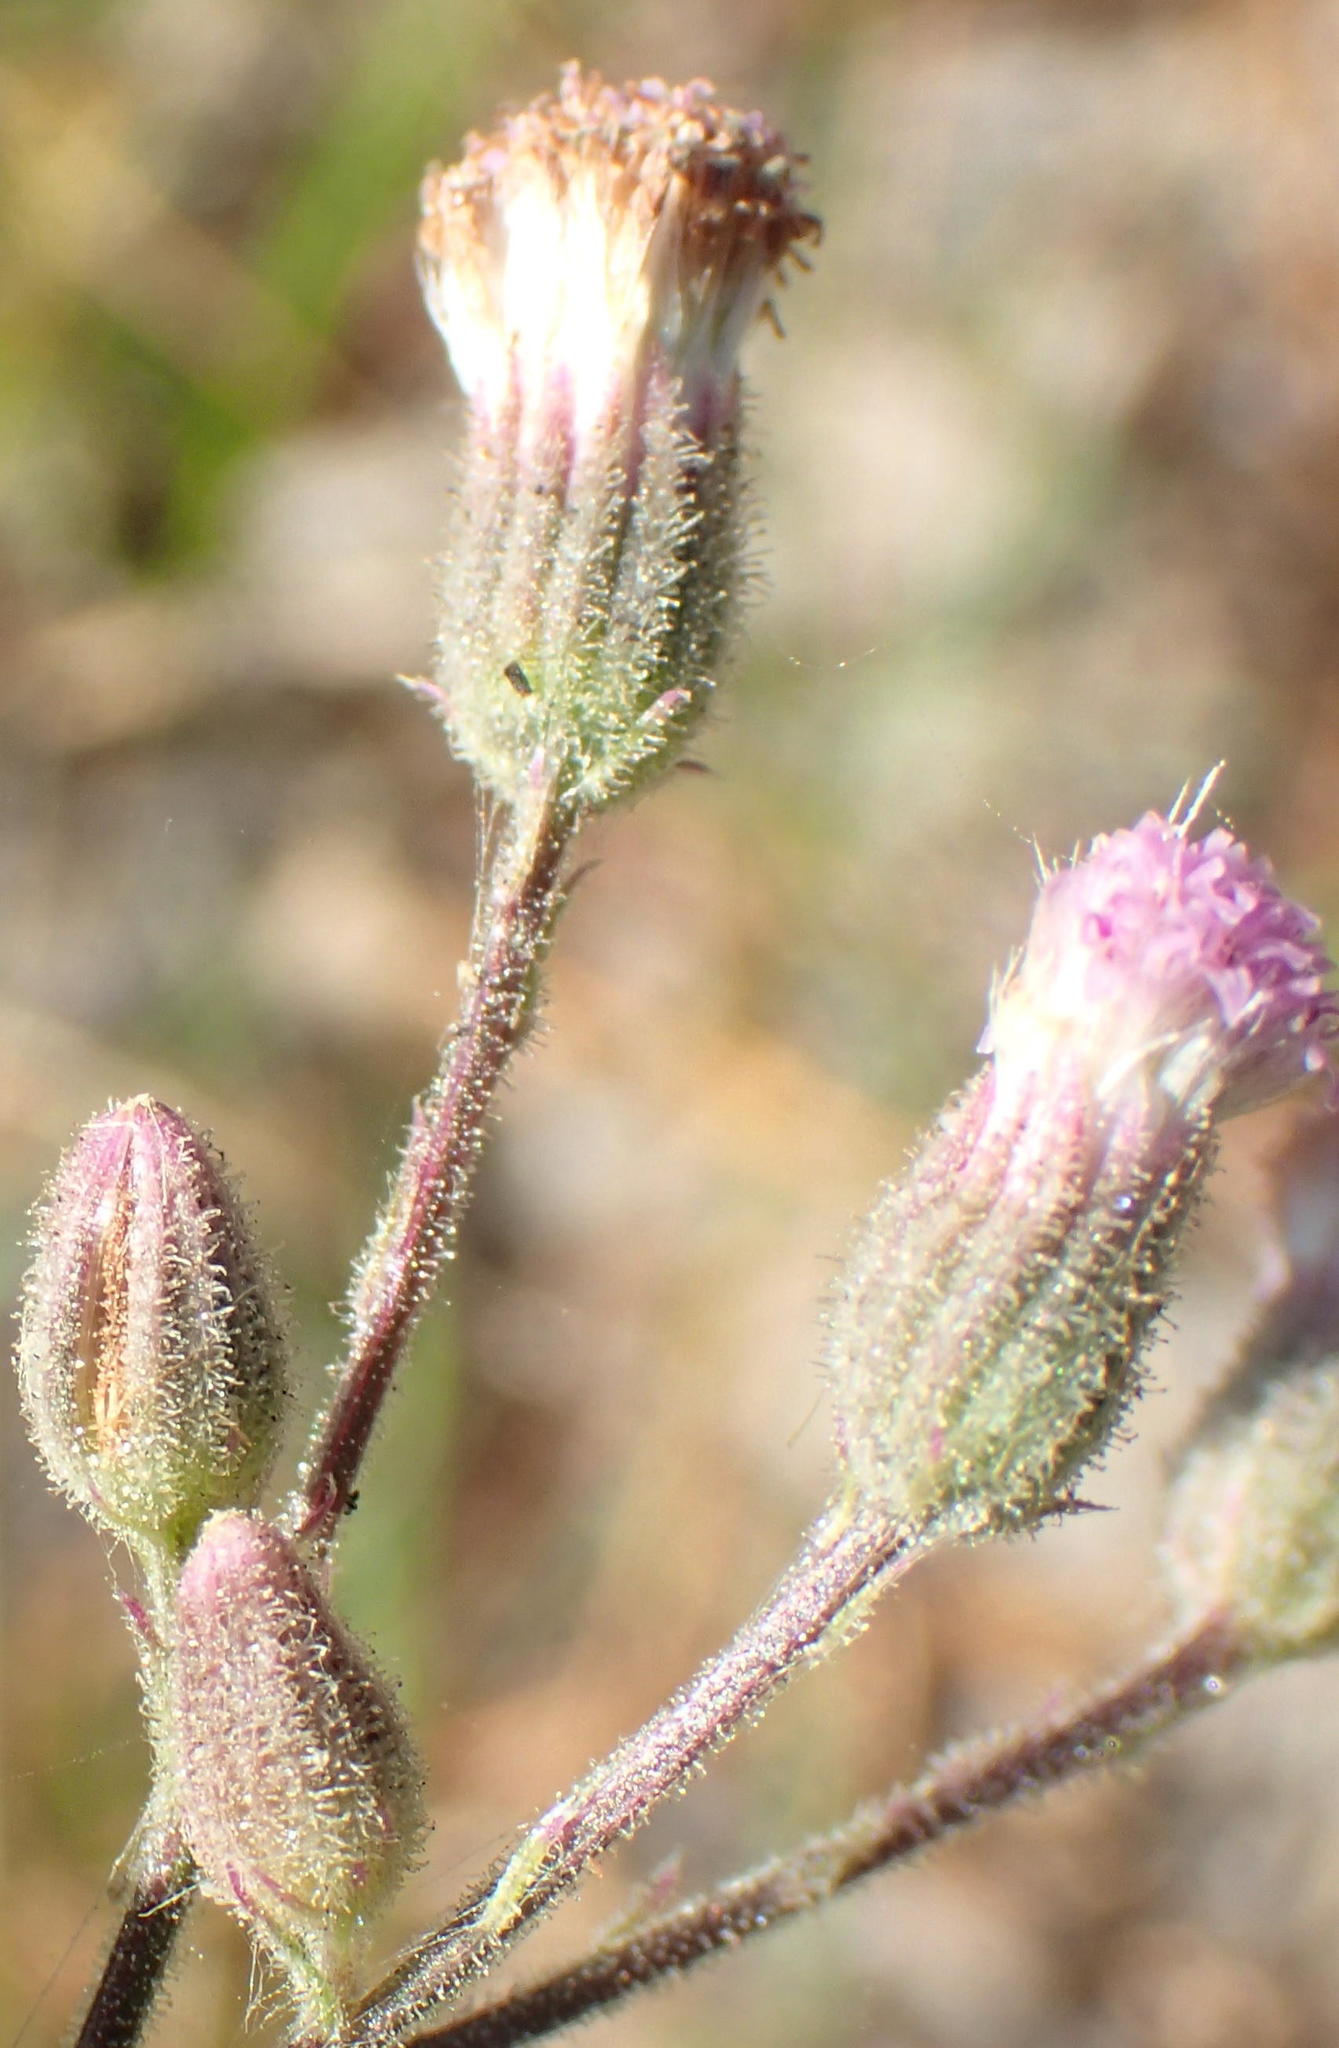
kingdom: Plantae
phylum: Tracheophyta
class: Magnoliopsida
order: Asterales
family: Asteraceae
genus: Senecio
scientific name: Senecio purpureus
